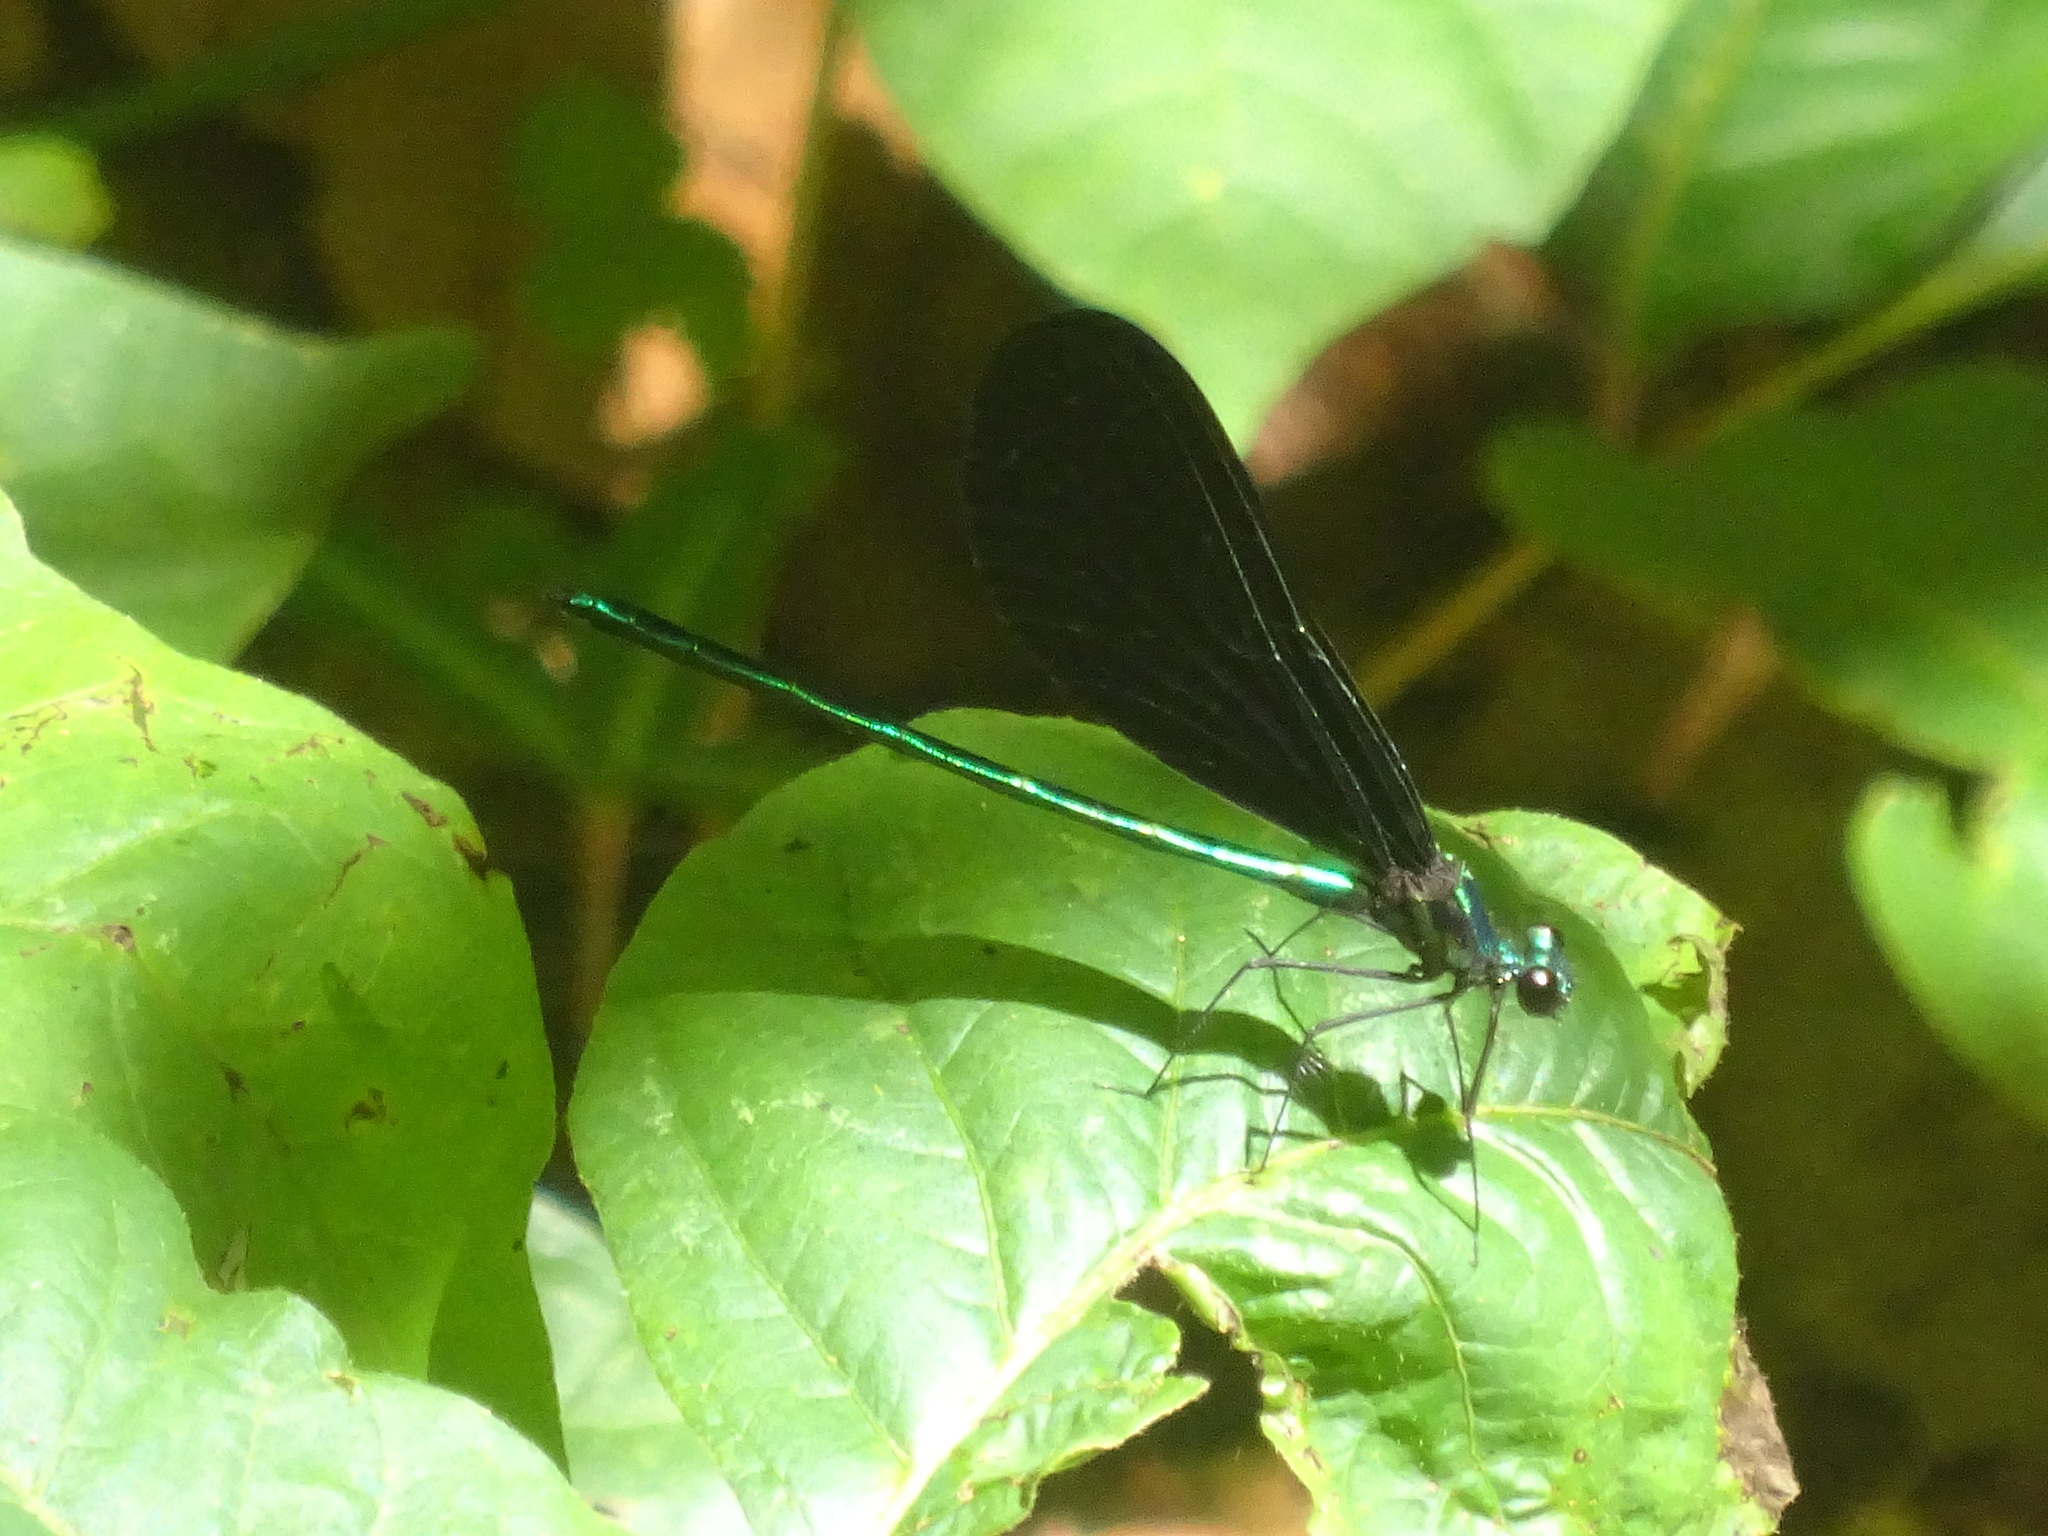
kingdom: Animalia
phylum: Arthropoda
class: Insecta
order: Odonata
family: Calopterygidae
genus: Calopteryx
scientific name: Calopteryx maculata
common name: Ebony jewelwing
